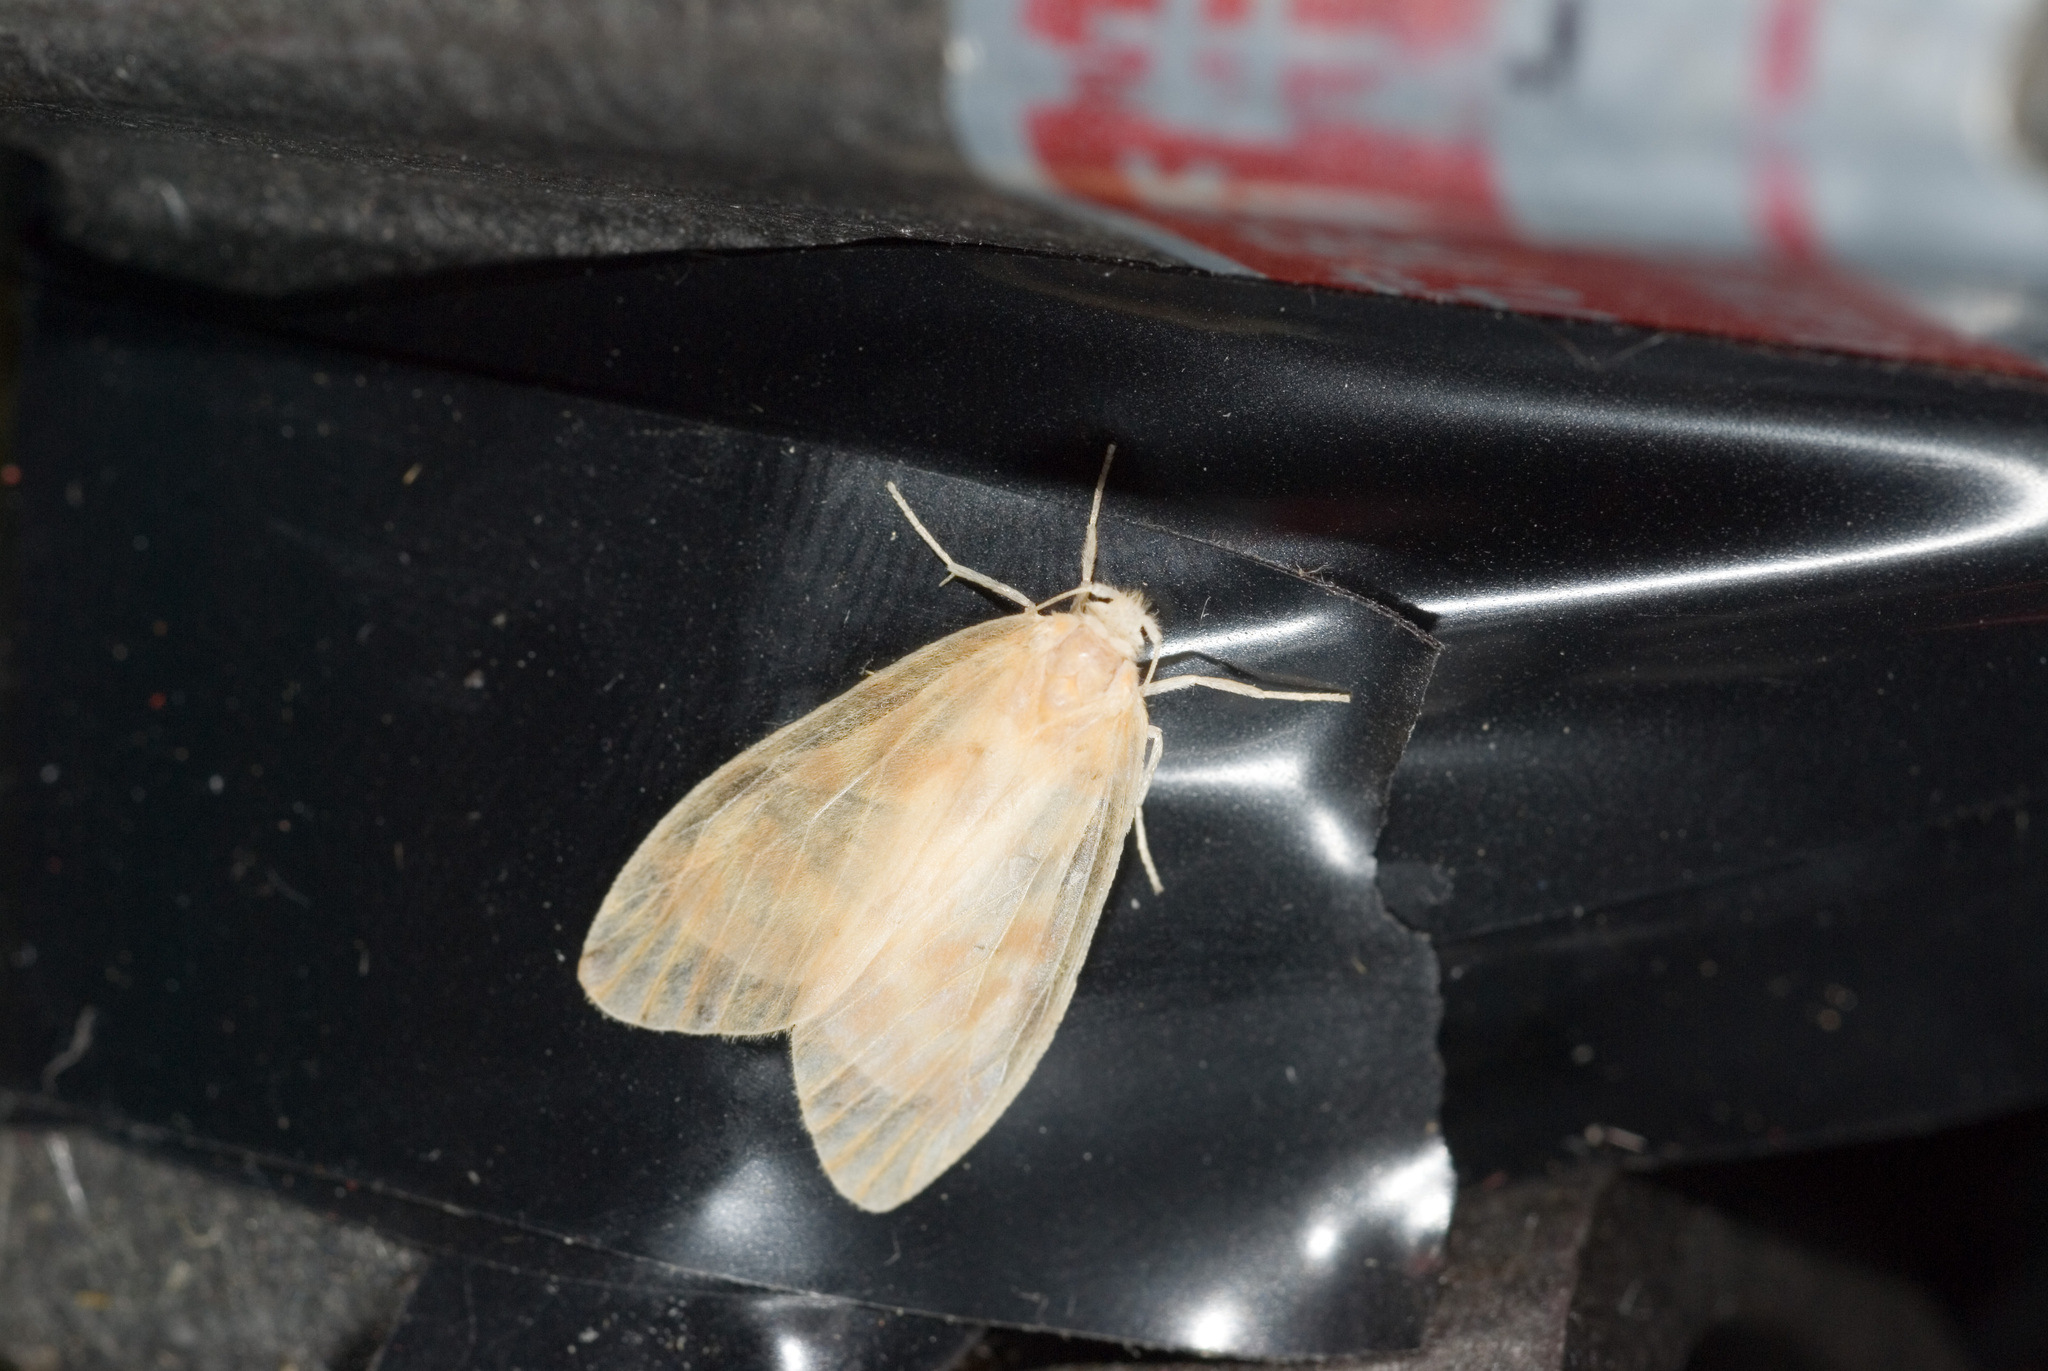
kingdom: Animalia
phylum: Arthropoda
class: Insecta
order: Lepidoptera
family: Erebidae
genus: Hemipsilia
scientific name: Hemipsilia coavestis
